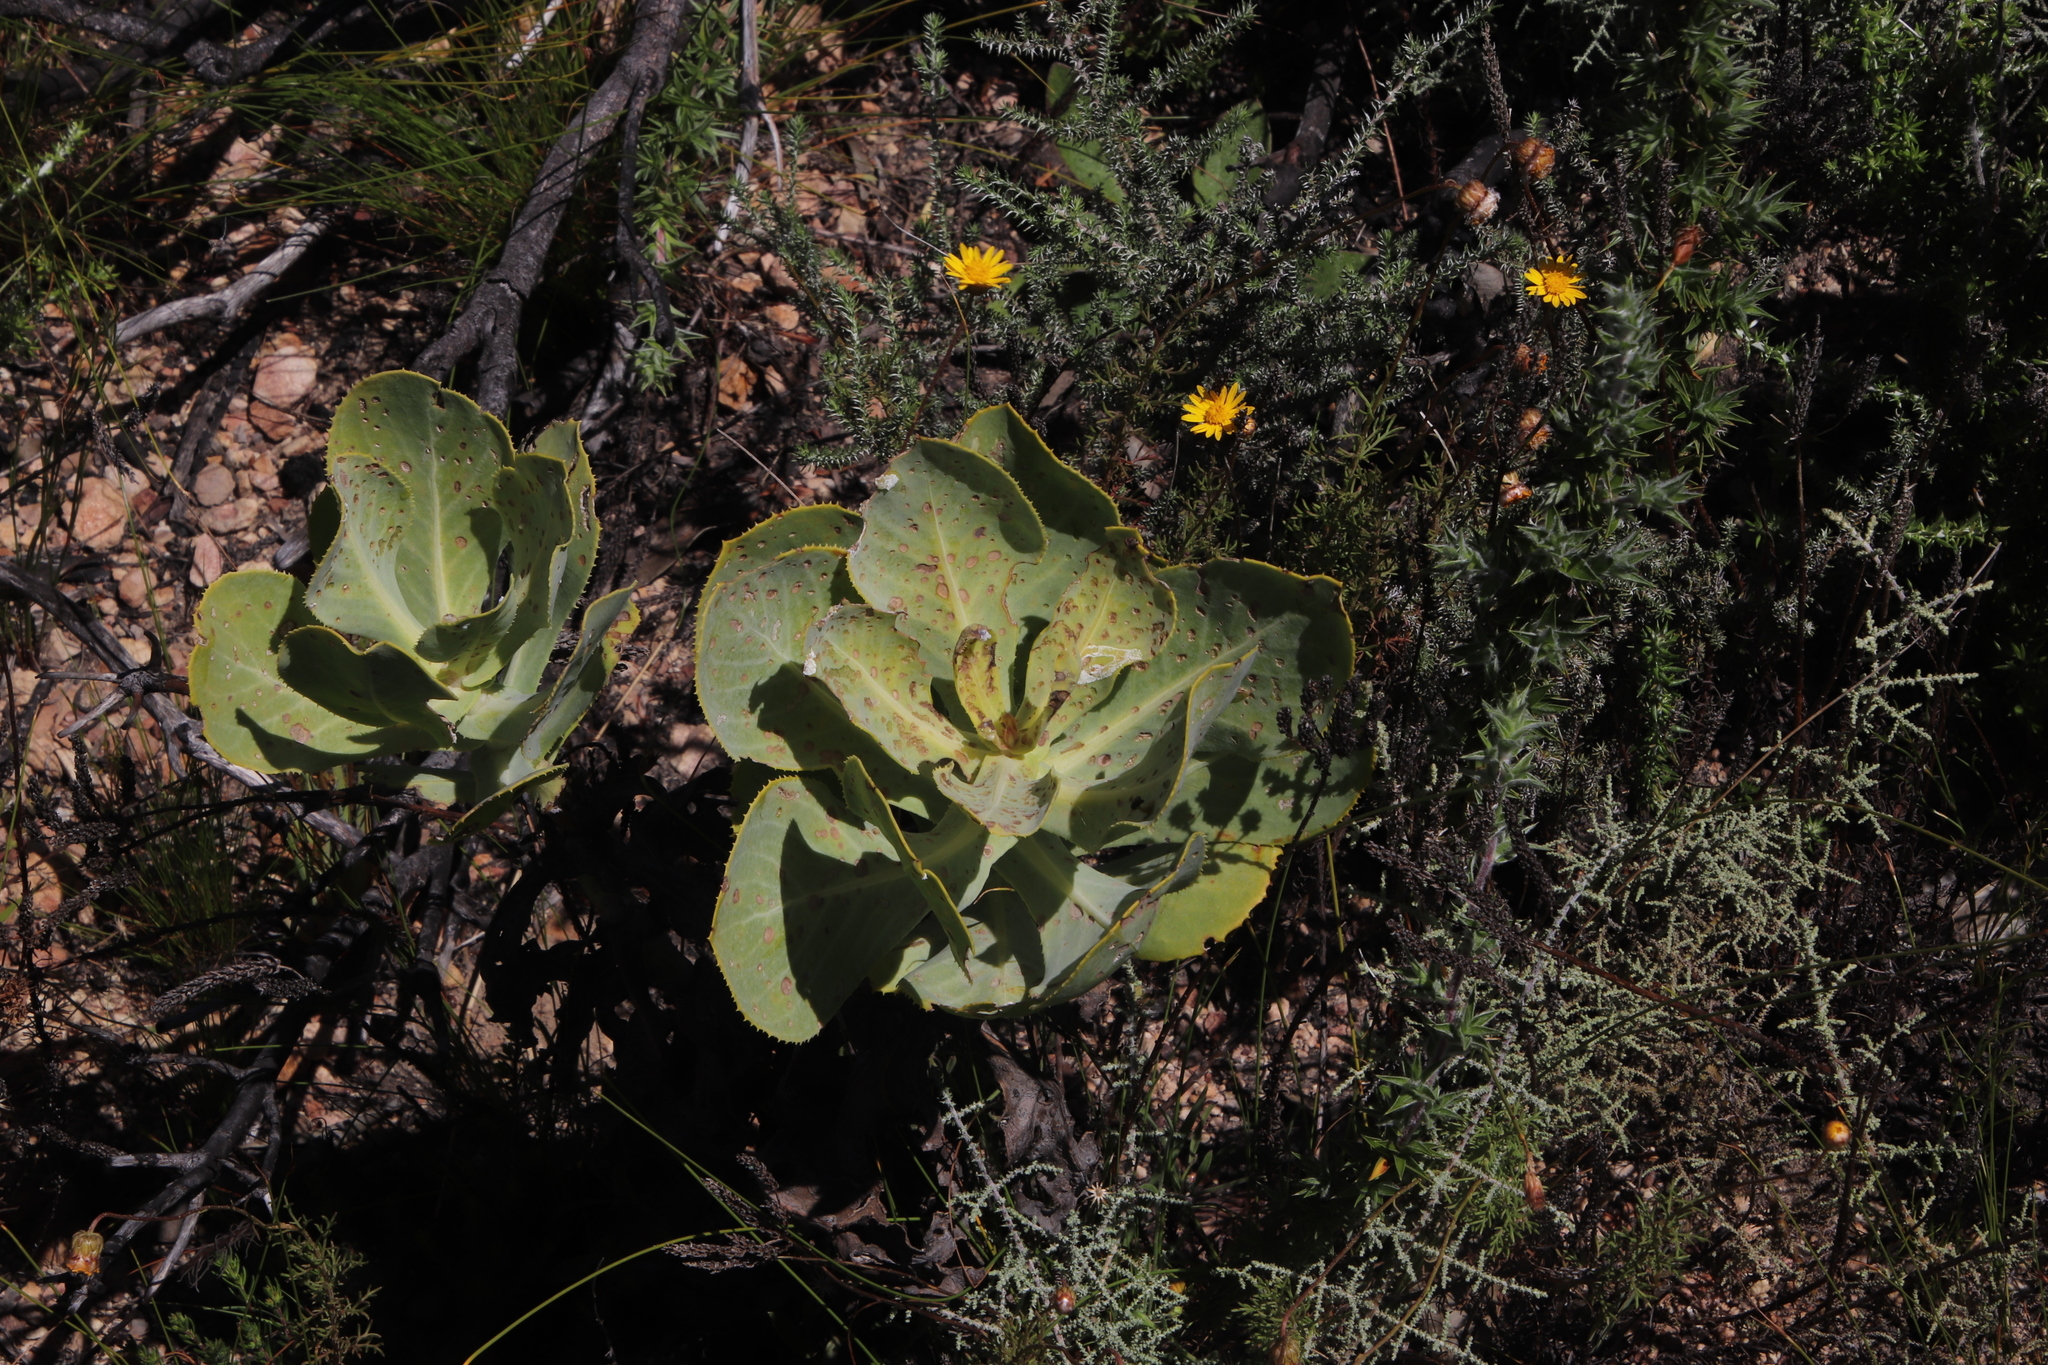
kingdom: Plantae
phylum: Tracheophyta
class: Magnoliopsida
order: Asterales
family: Asteraceae
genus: Othonna
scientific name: Othonna parviflora
